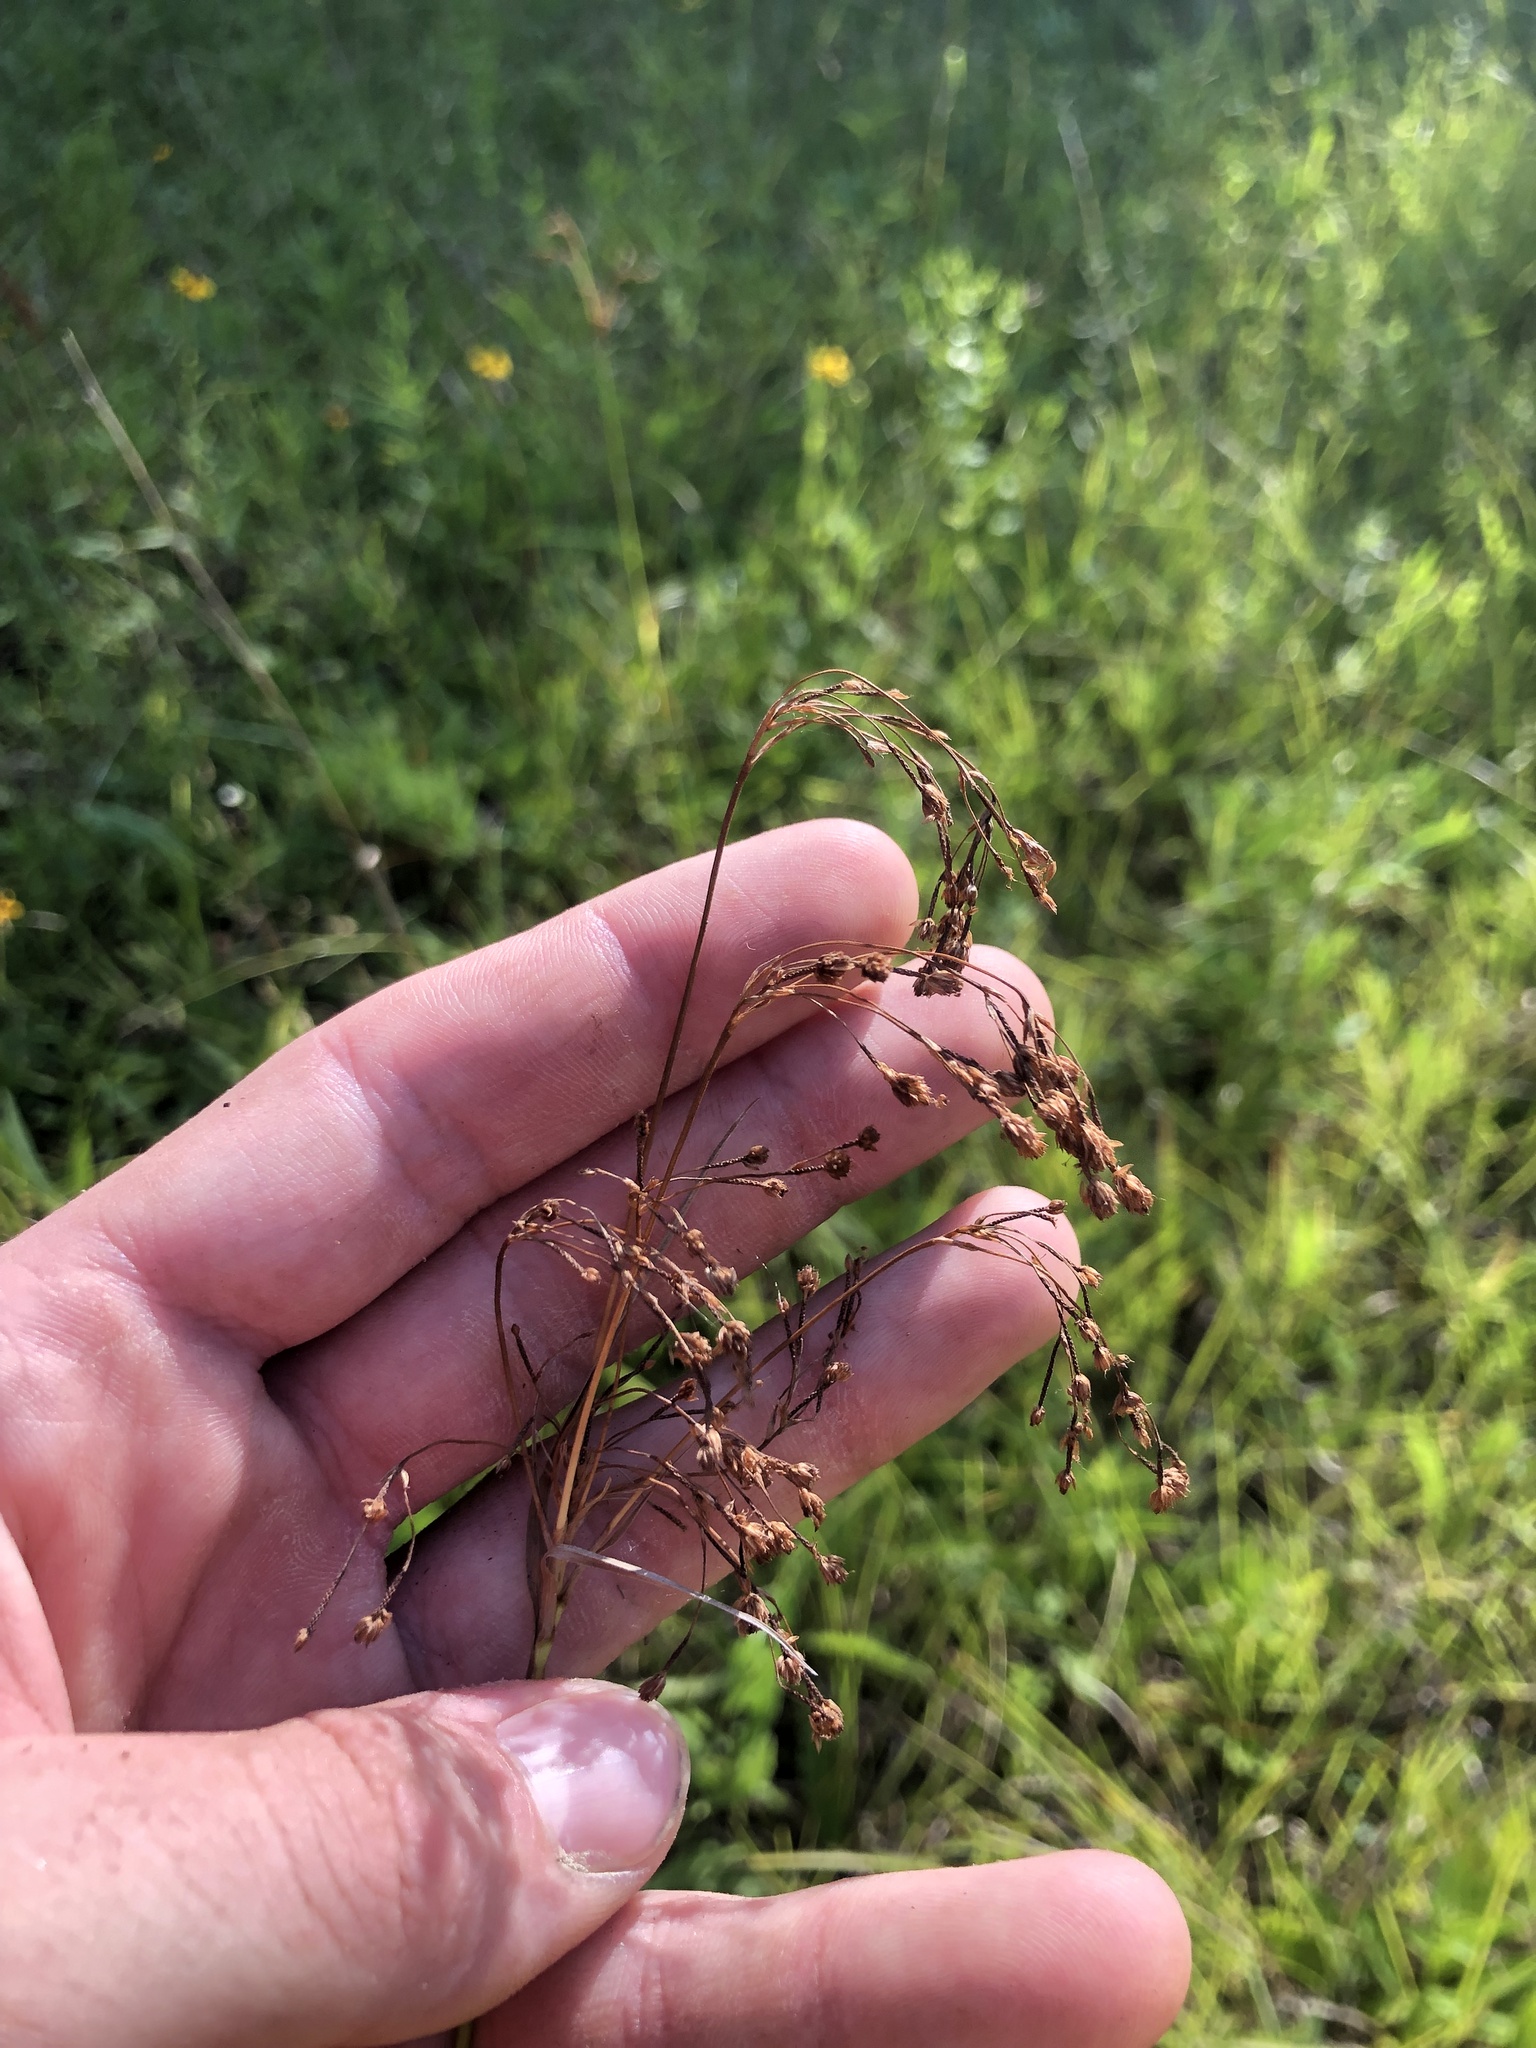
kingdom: Plantae
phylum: Tracheophyta
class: Liliopsida
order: Poales
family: Cyperaceae
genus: Scirpus
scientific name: Scirpus pendulus
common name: Nodding bulrush
